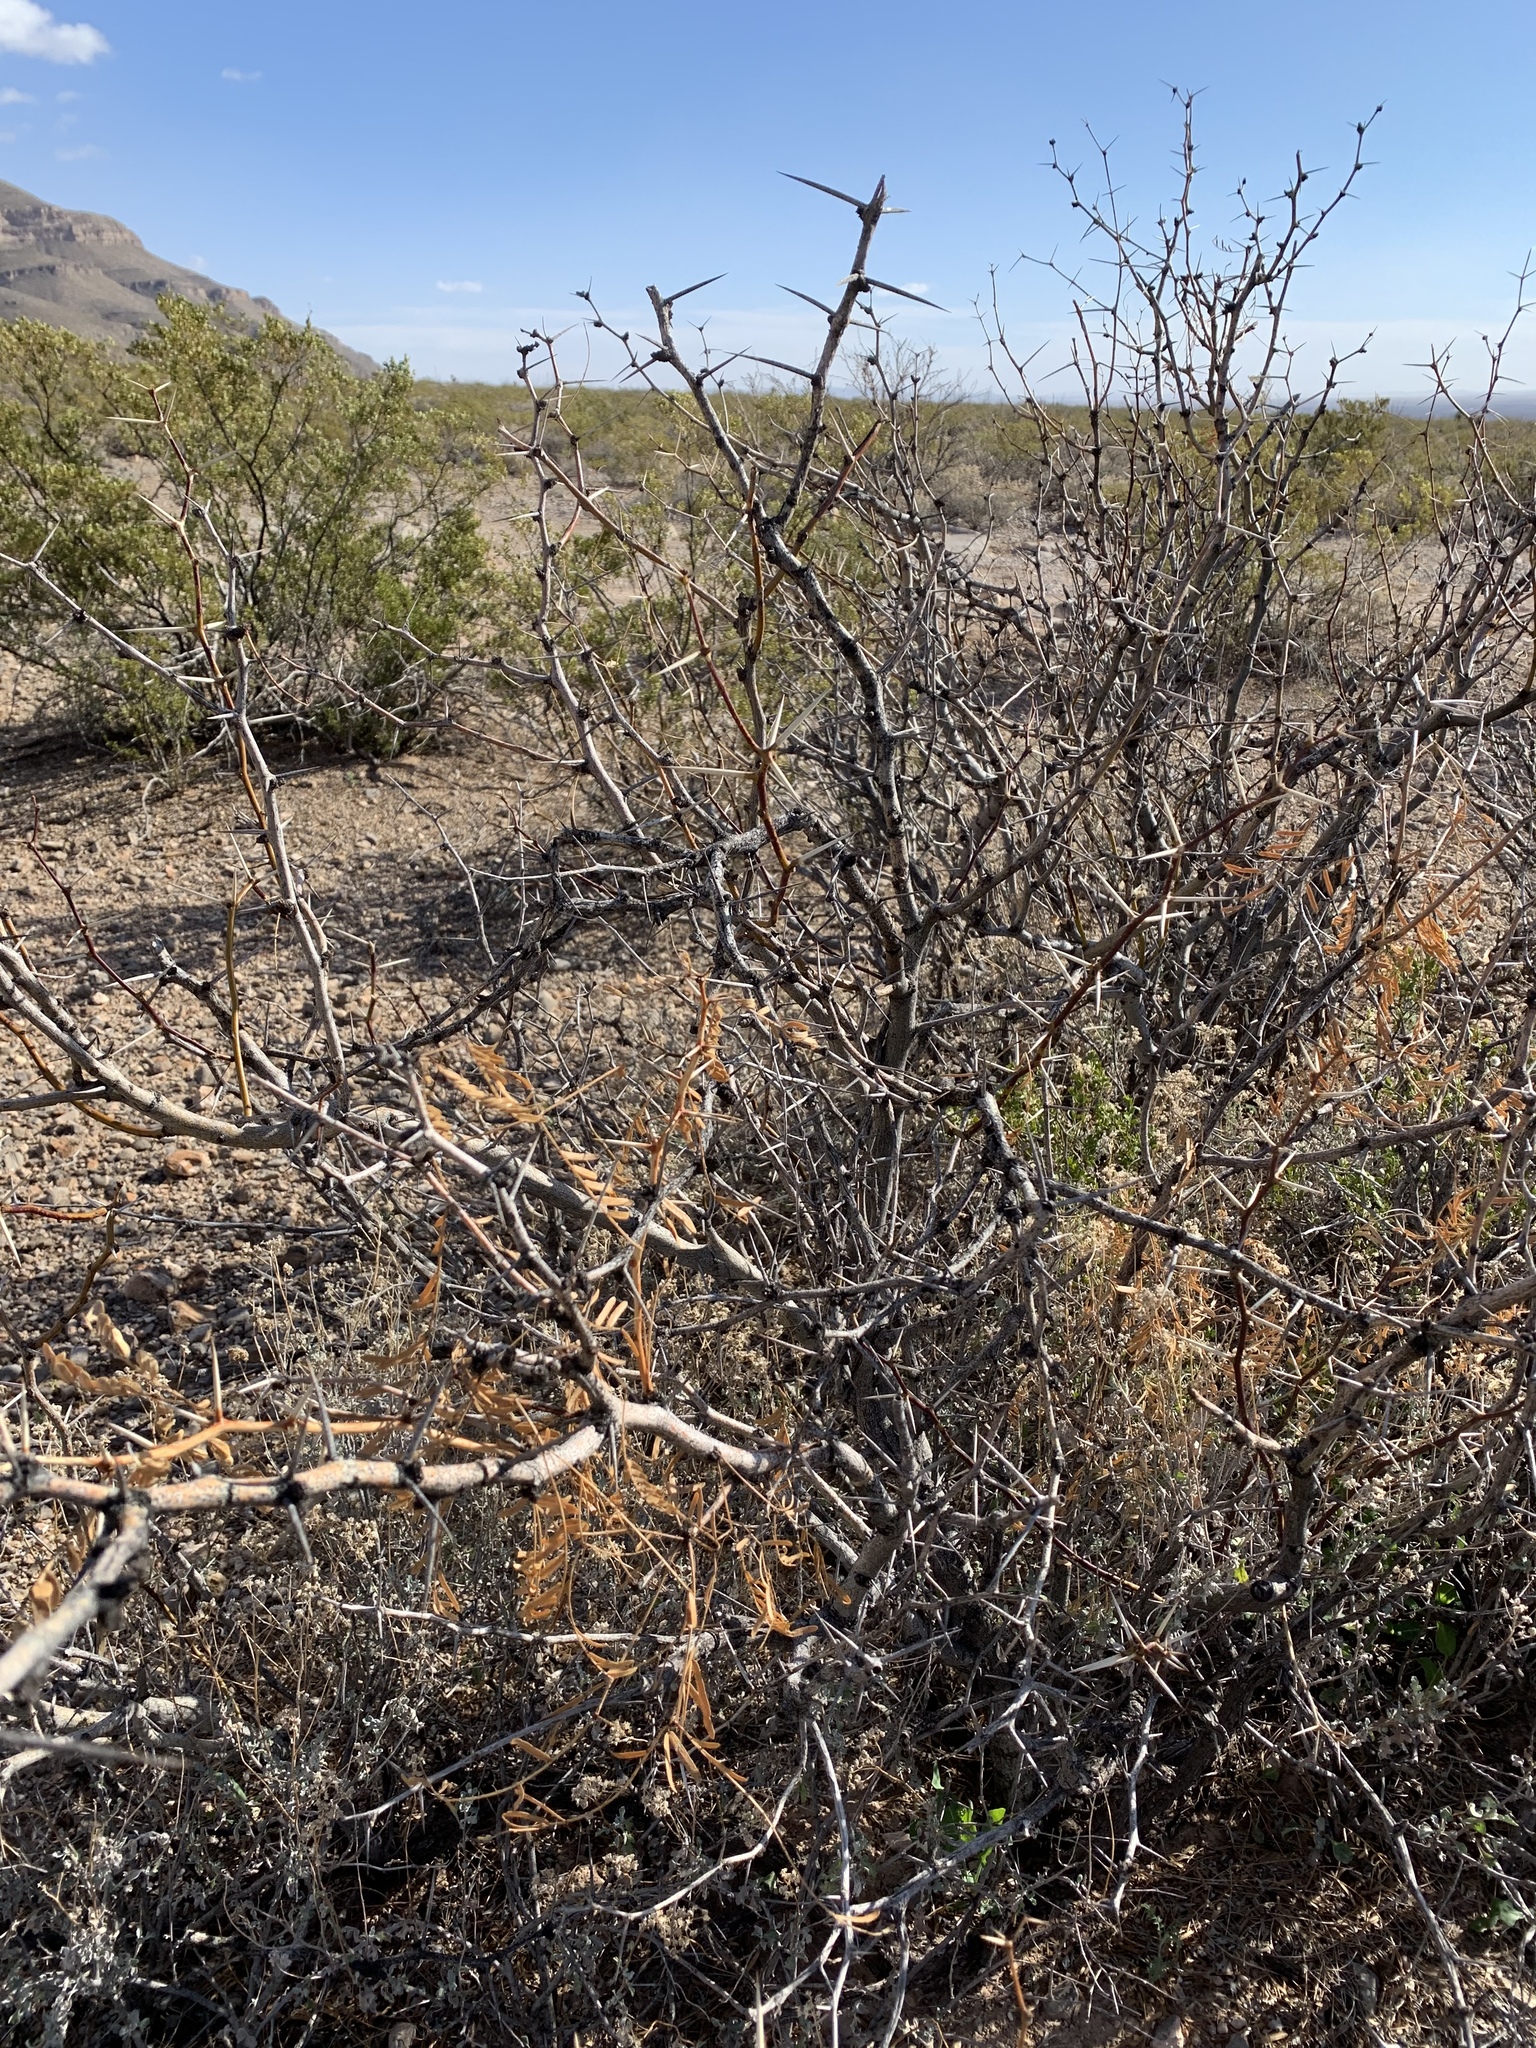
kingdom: Plantae
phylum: Tracheophyta
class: Magnoliopsida
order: Fabales
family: Fabaceae
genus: Prosopis
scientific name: Prosopis glandulosa
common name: Honey mesquite
